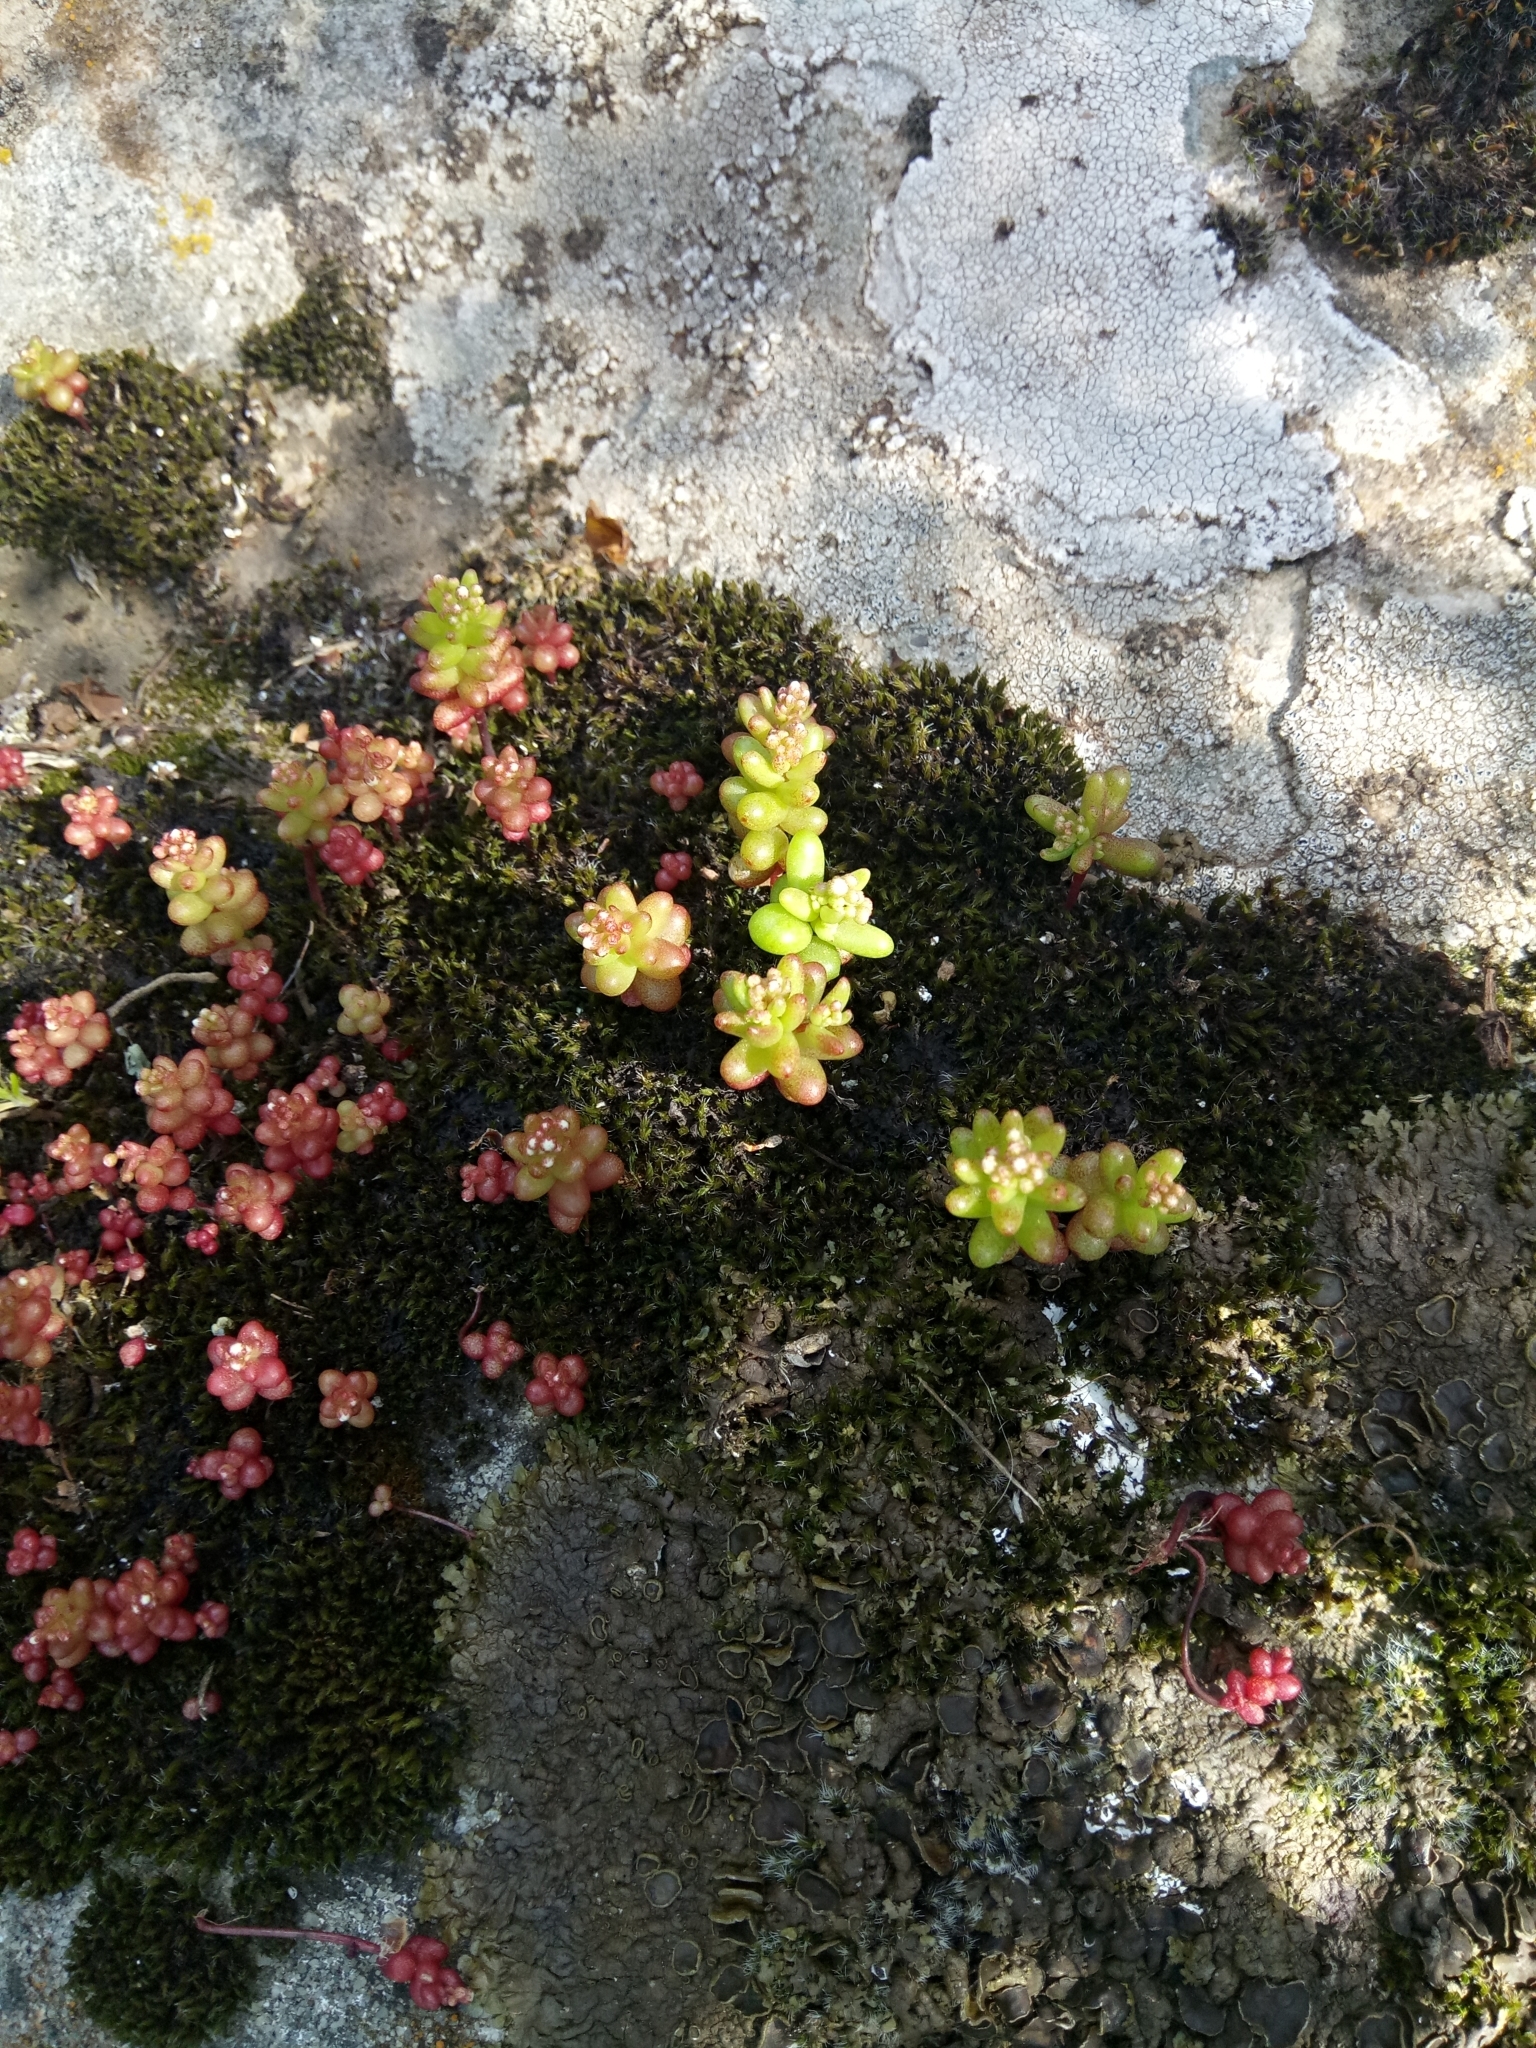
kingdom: Plantae
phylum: Tracheophyta
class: Magnoliopsida
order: Saxifragales
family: Crassulaceae
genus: Sedum
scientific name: Sedum caeruleum
